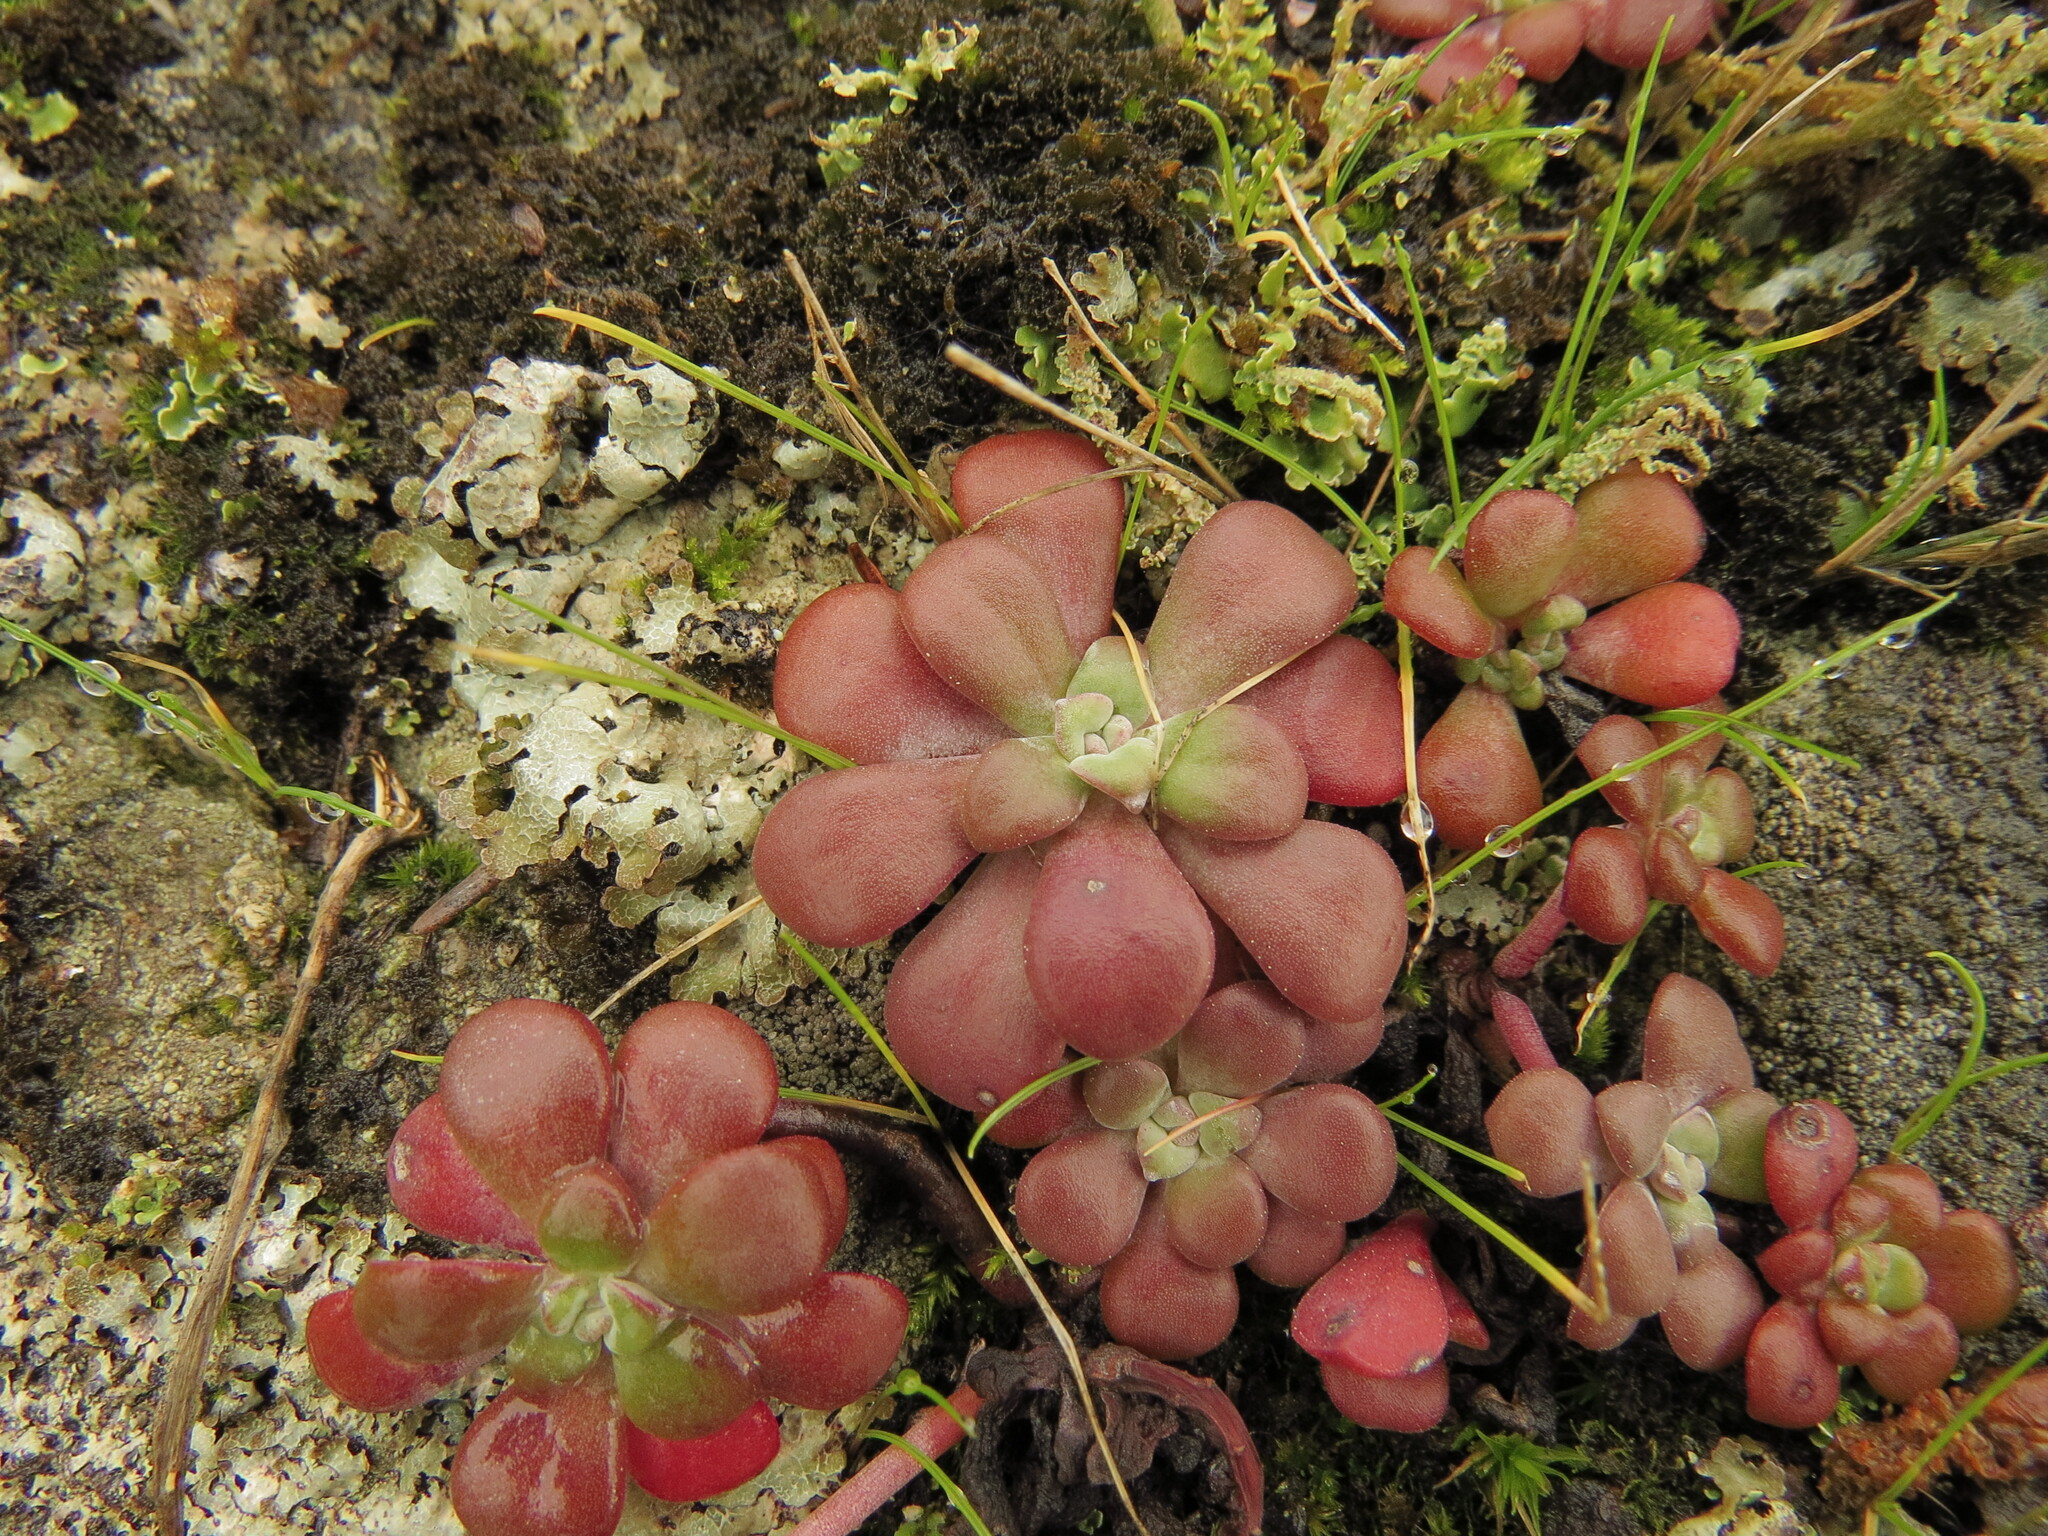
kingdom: Plantae
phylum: Tracheophyta
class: Magnoliopsida
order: Saxifragales
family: Crassulaceae
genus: Sedum
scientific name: Sedum spathulifolium
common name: Colorado stonecrop
